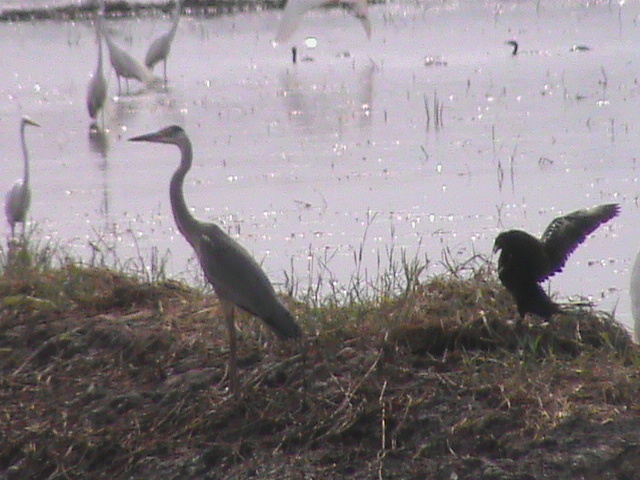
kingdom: Animalia
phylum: Chordata
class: Aves
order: Pelecaniformes
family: Ardeidae
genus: Ardea
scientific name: Ardea cinerea
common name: Grey heron
